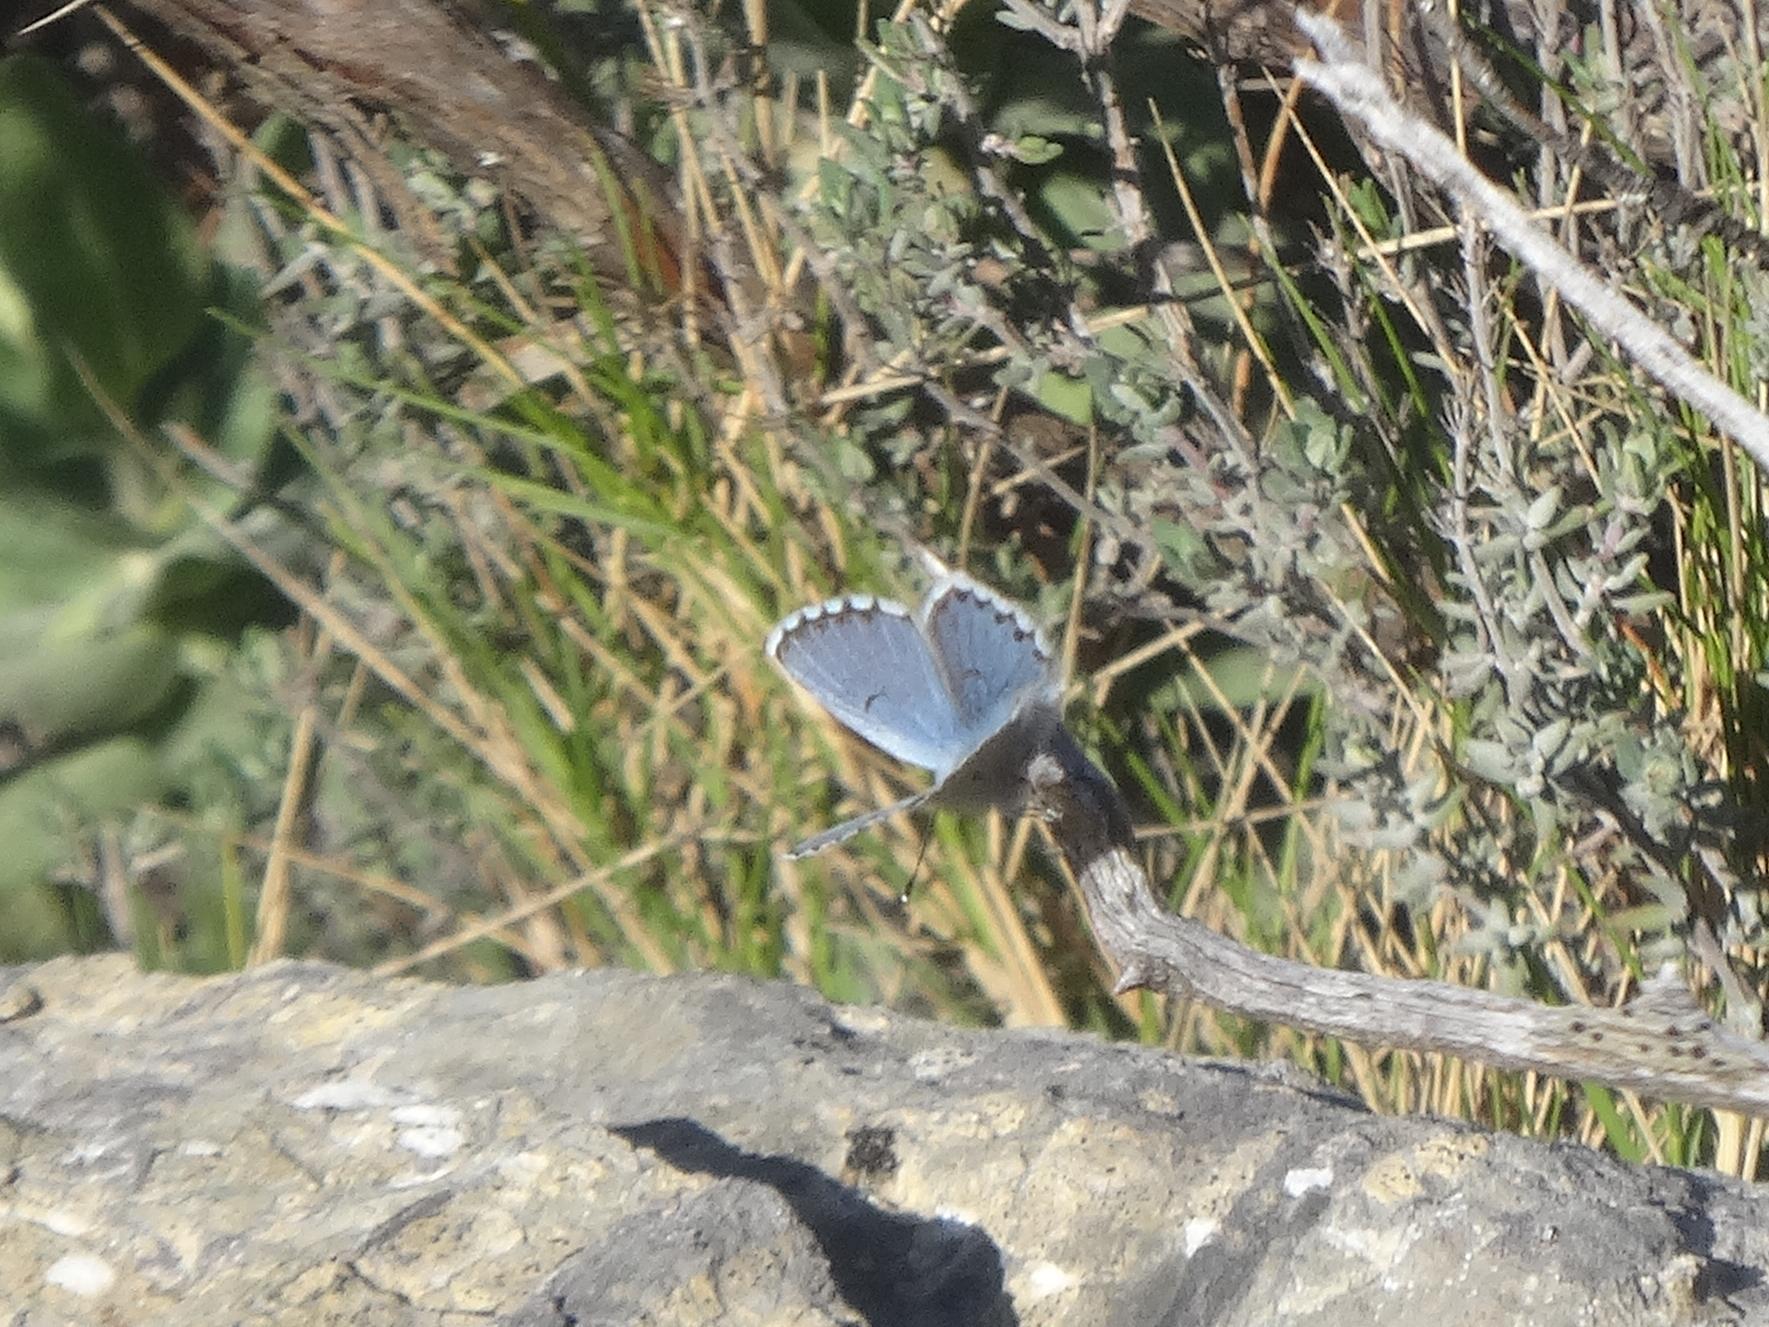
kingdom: Animalia
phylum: Arthropoda
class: Insecta
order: Lepidoptera
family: Lycaenidae
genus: Pseudophilotes
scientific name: Pseudophilotes baton
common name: Baton blue
